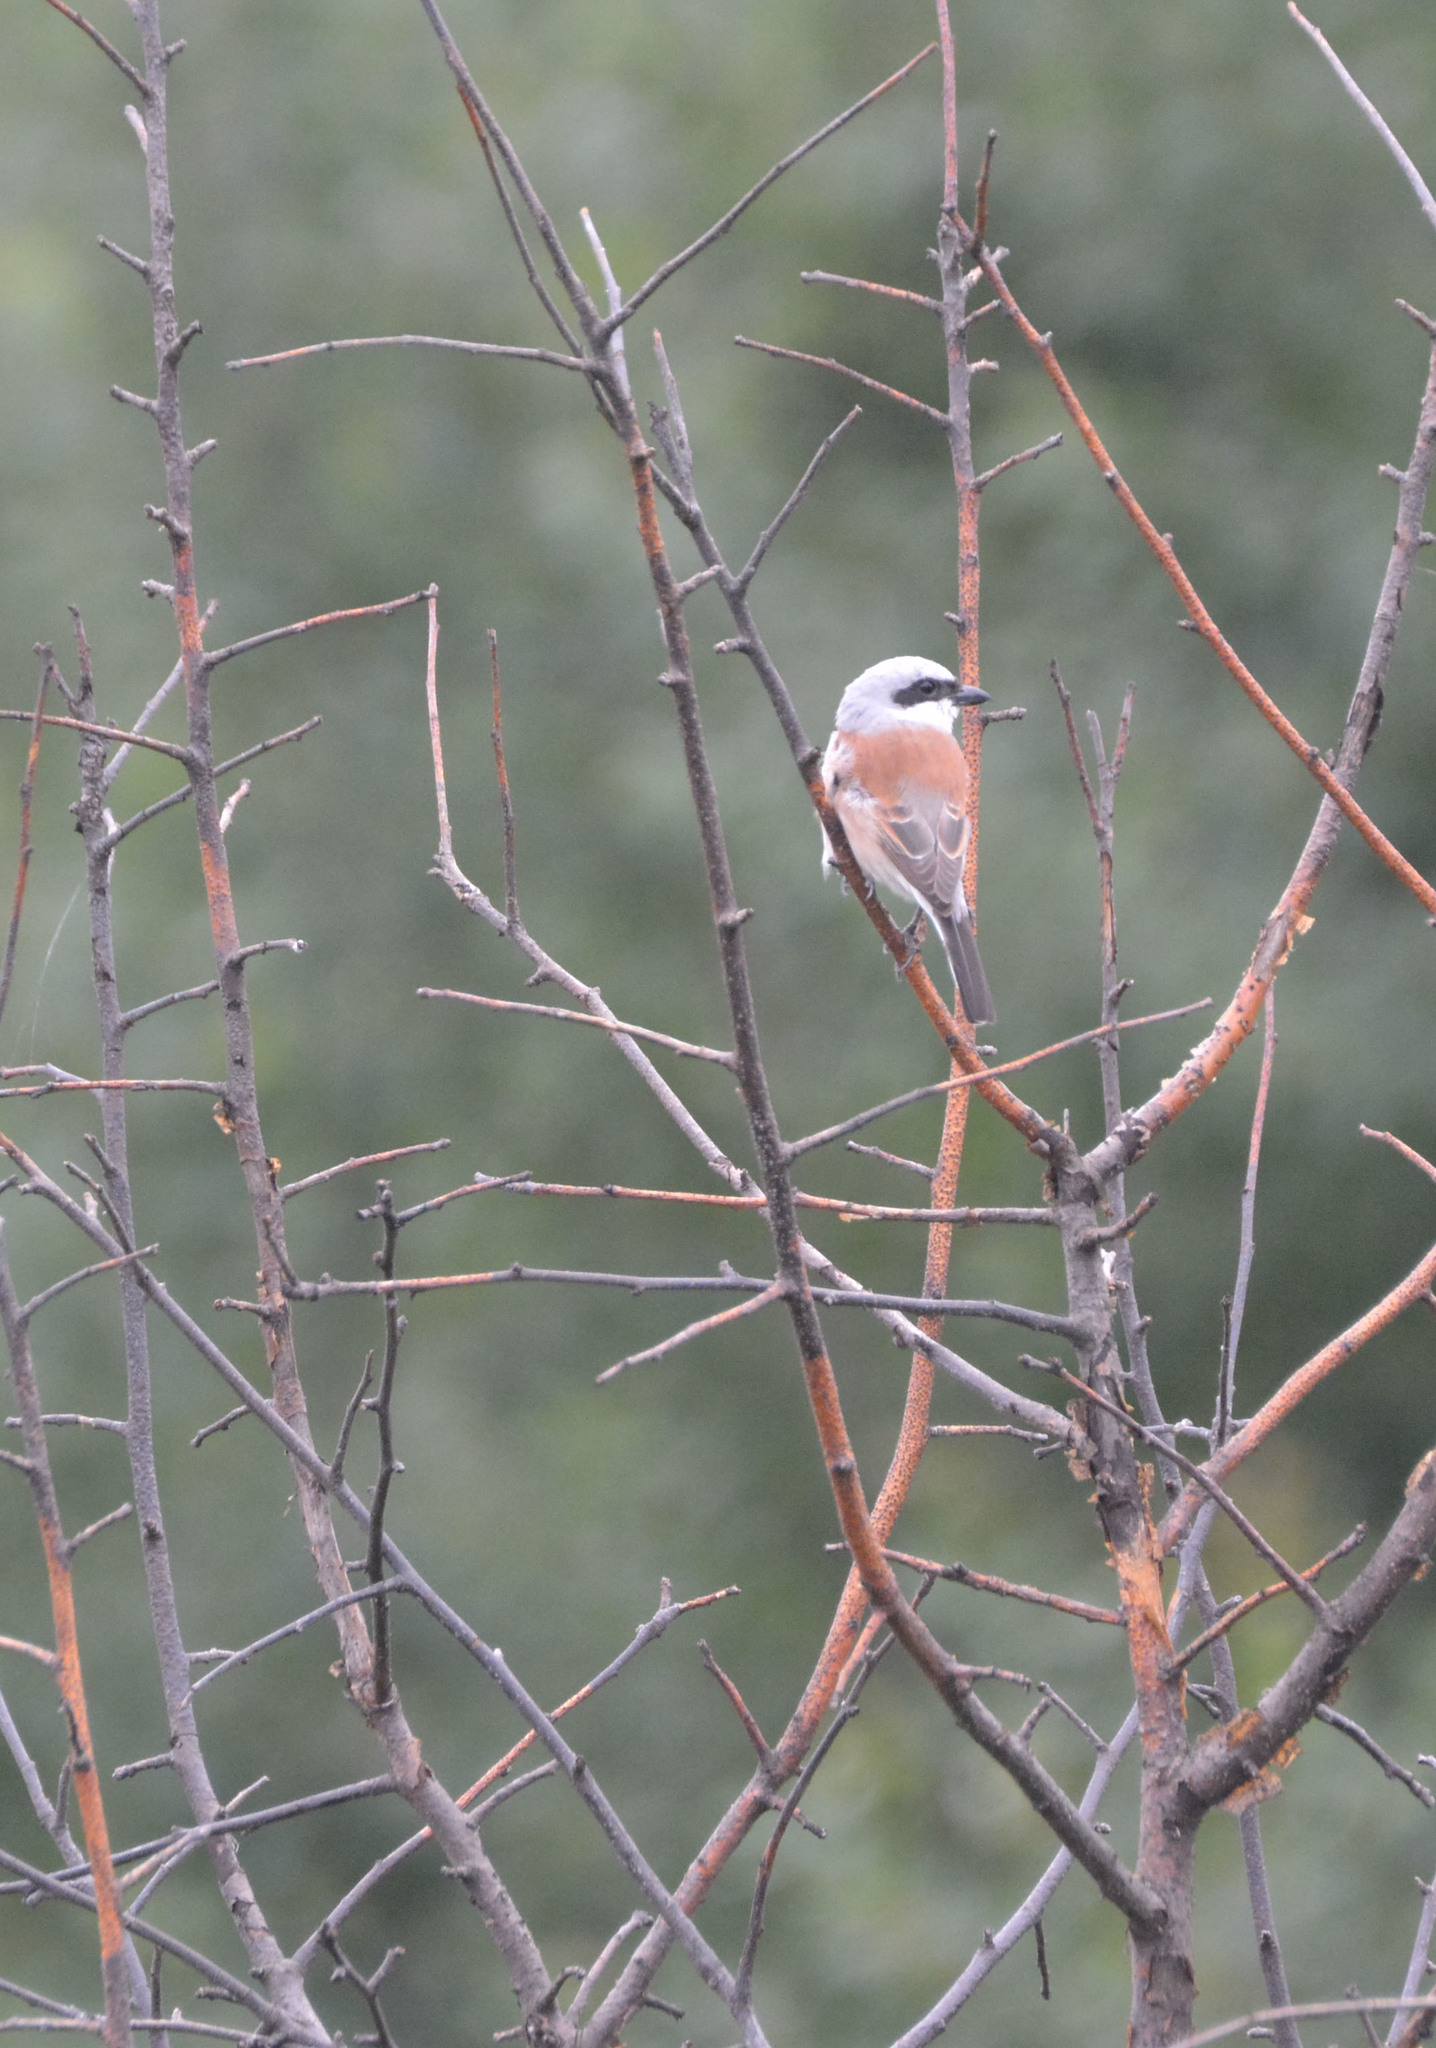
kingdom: Animalia
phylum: Chordata
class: Aves
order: Passeriformes
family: Laniidae
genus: Lanius
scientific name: Lanius collurio
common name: Red-backed shrike
